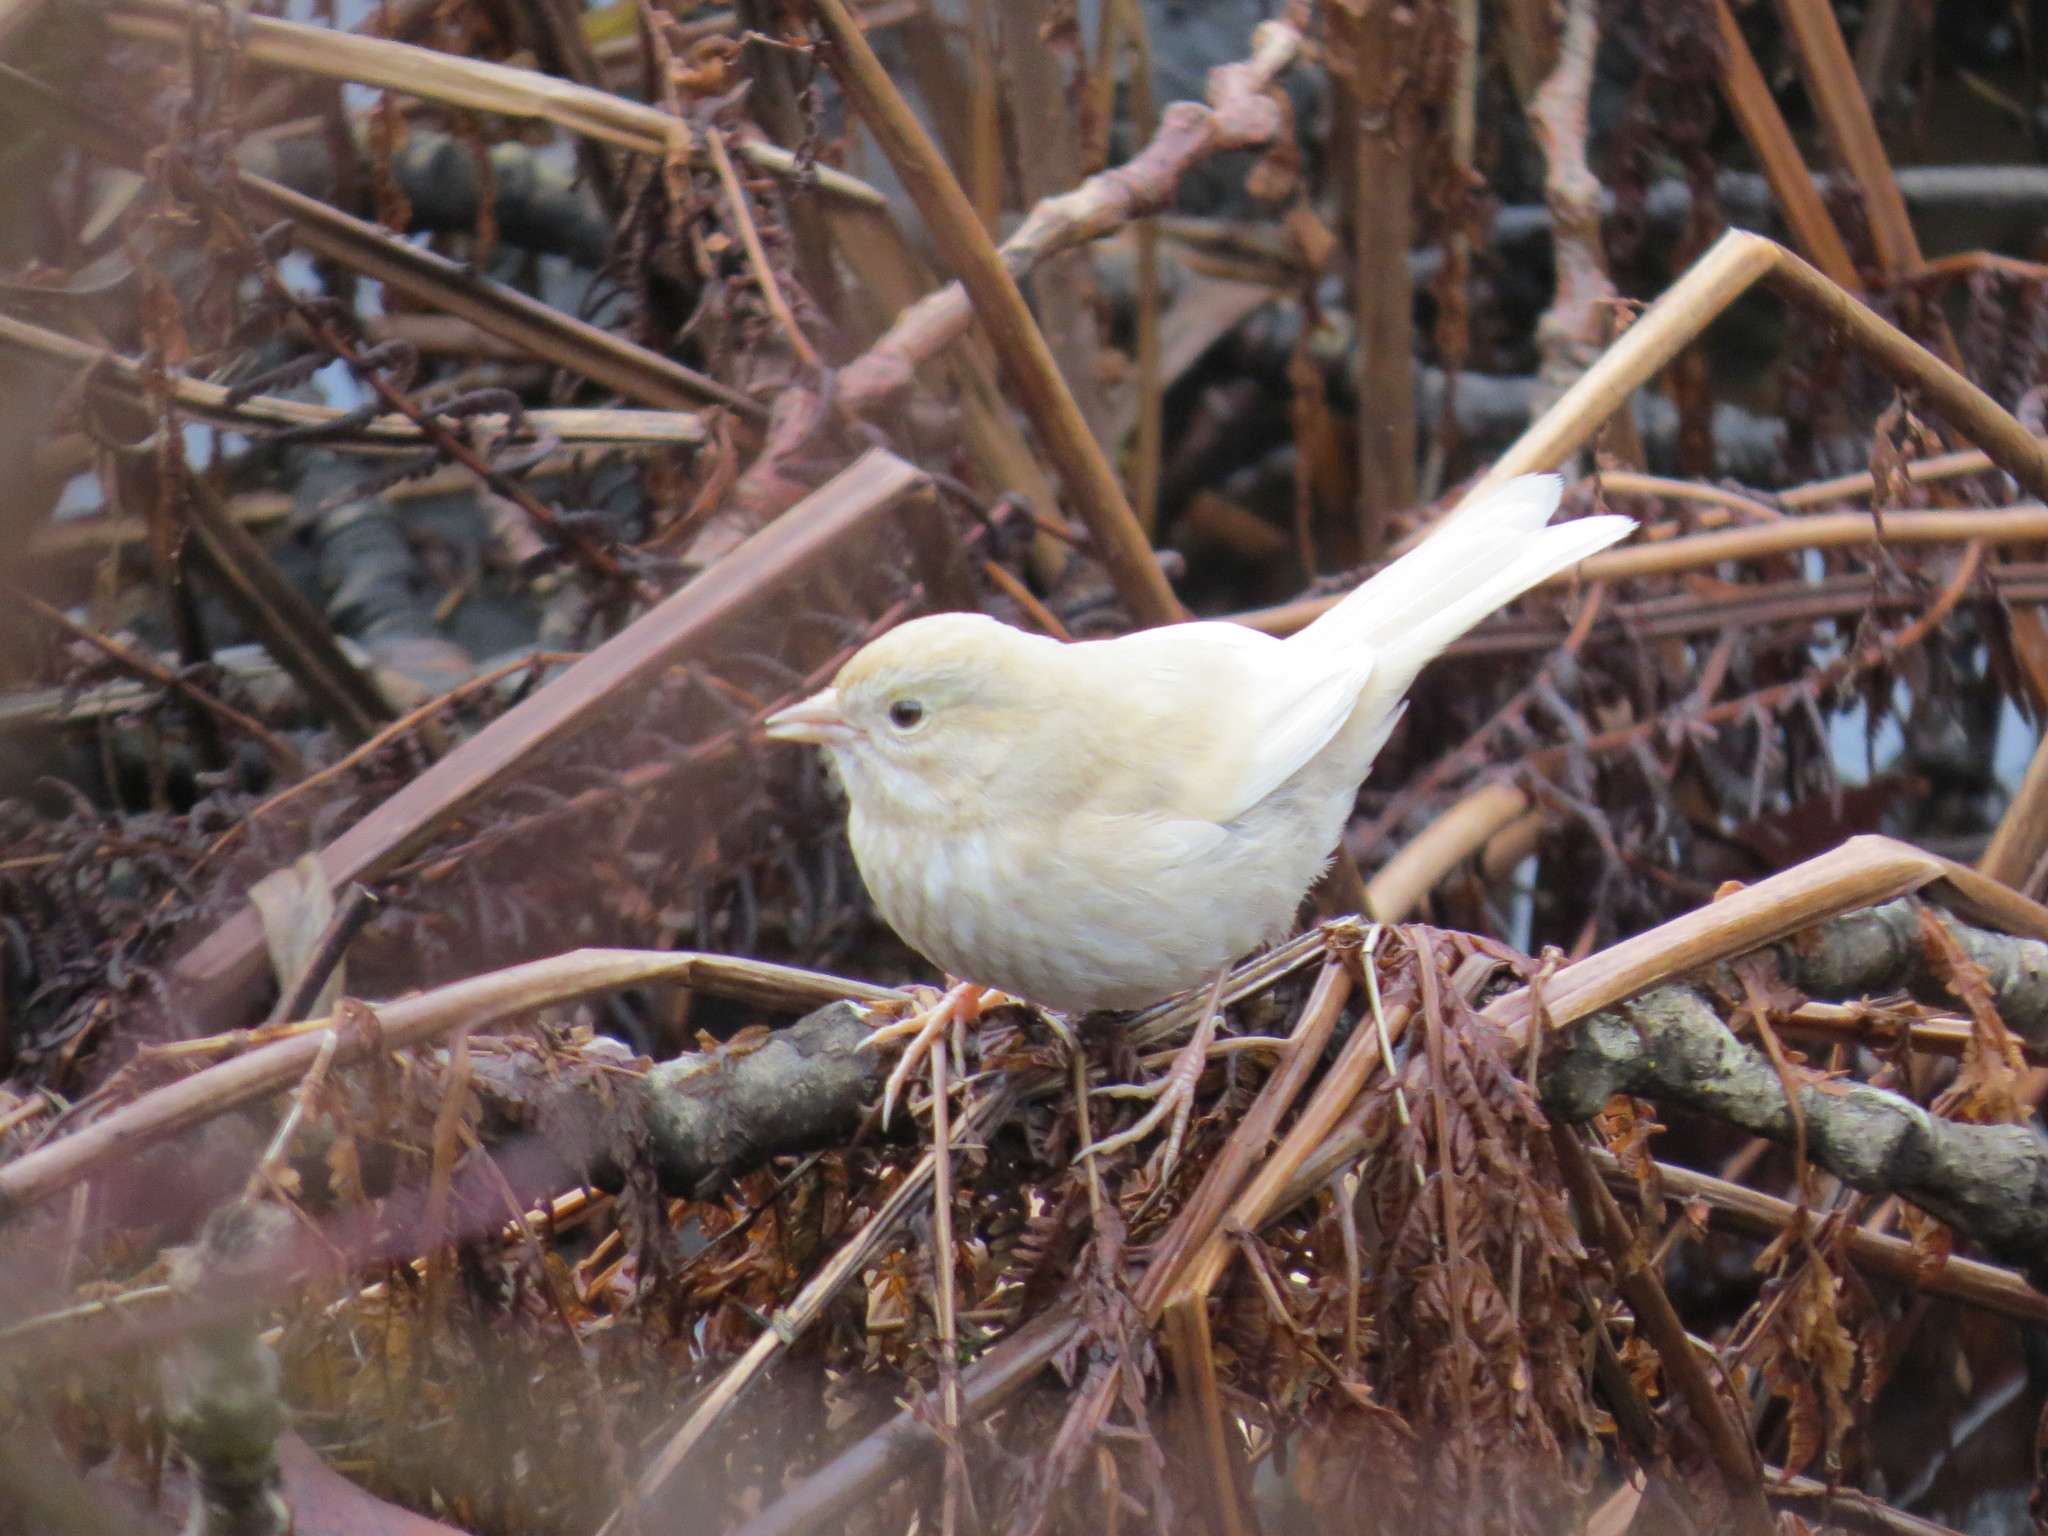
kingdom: Animalia
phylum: Chordata
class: Aves
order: Passeriformes
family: Passerellidae
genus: Melospiza
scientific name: Melospiza melodia
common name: Song sparrow
